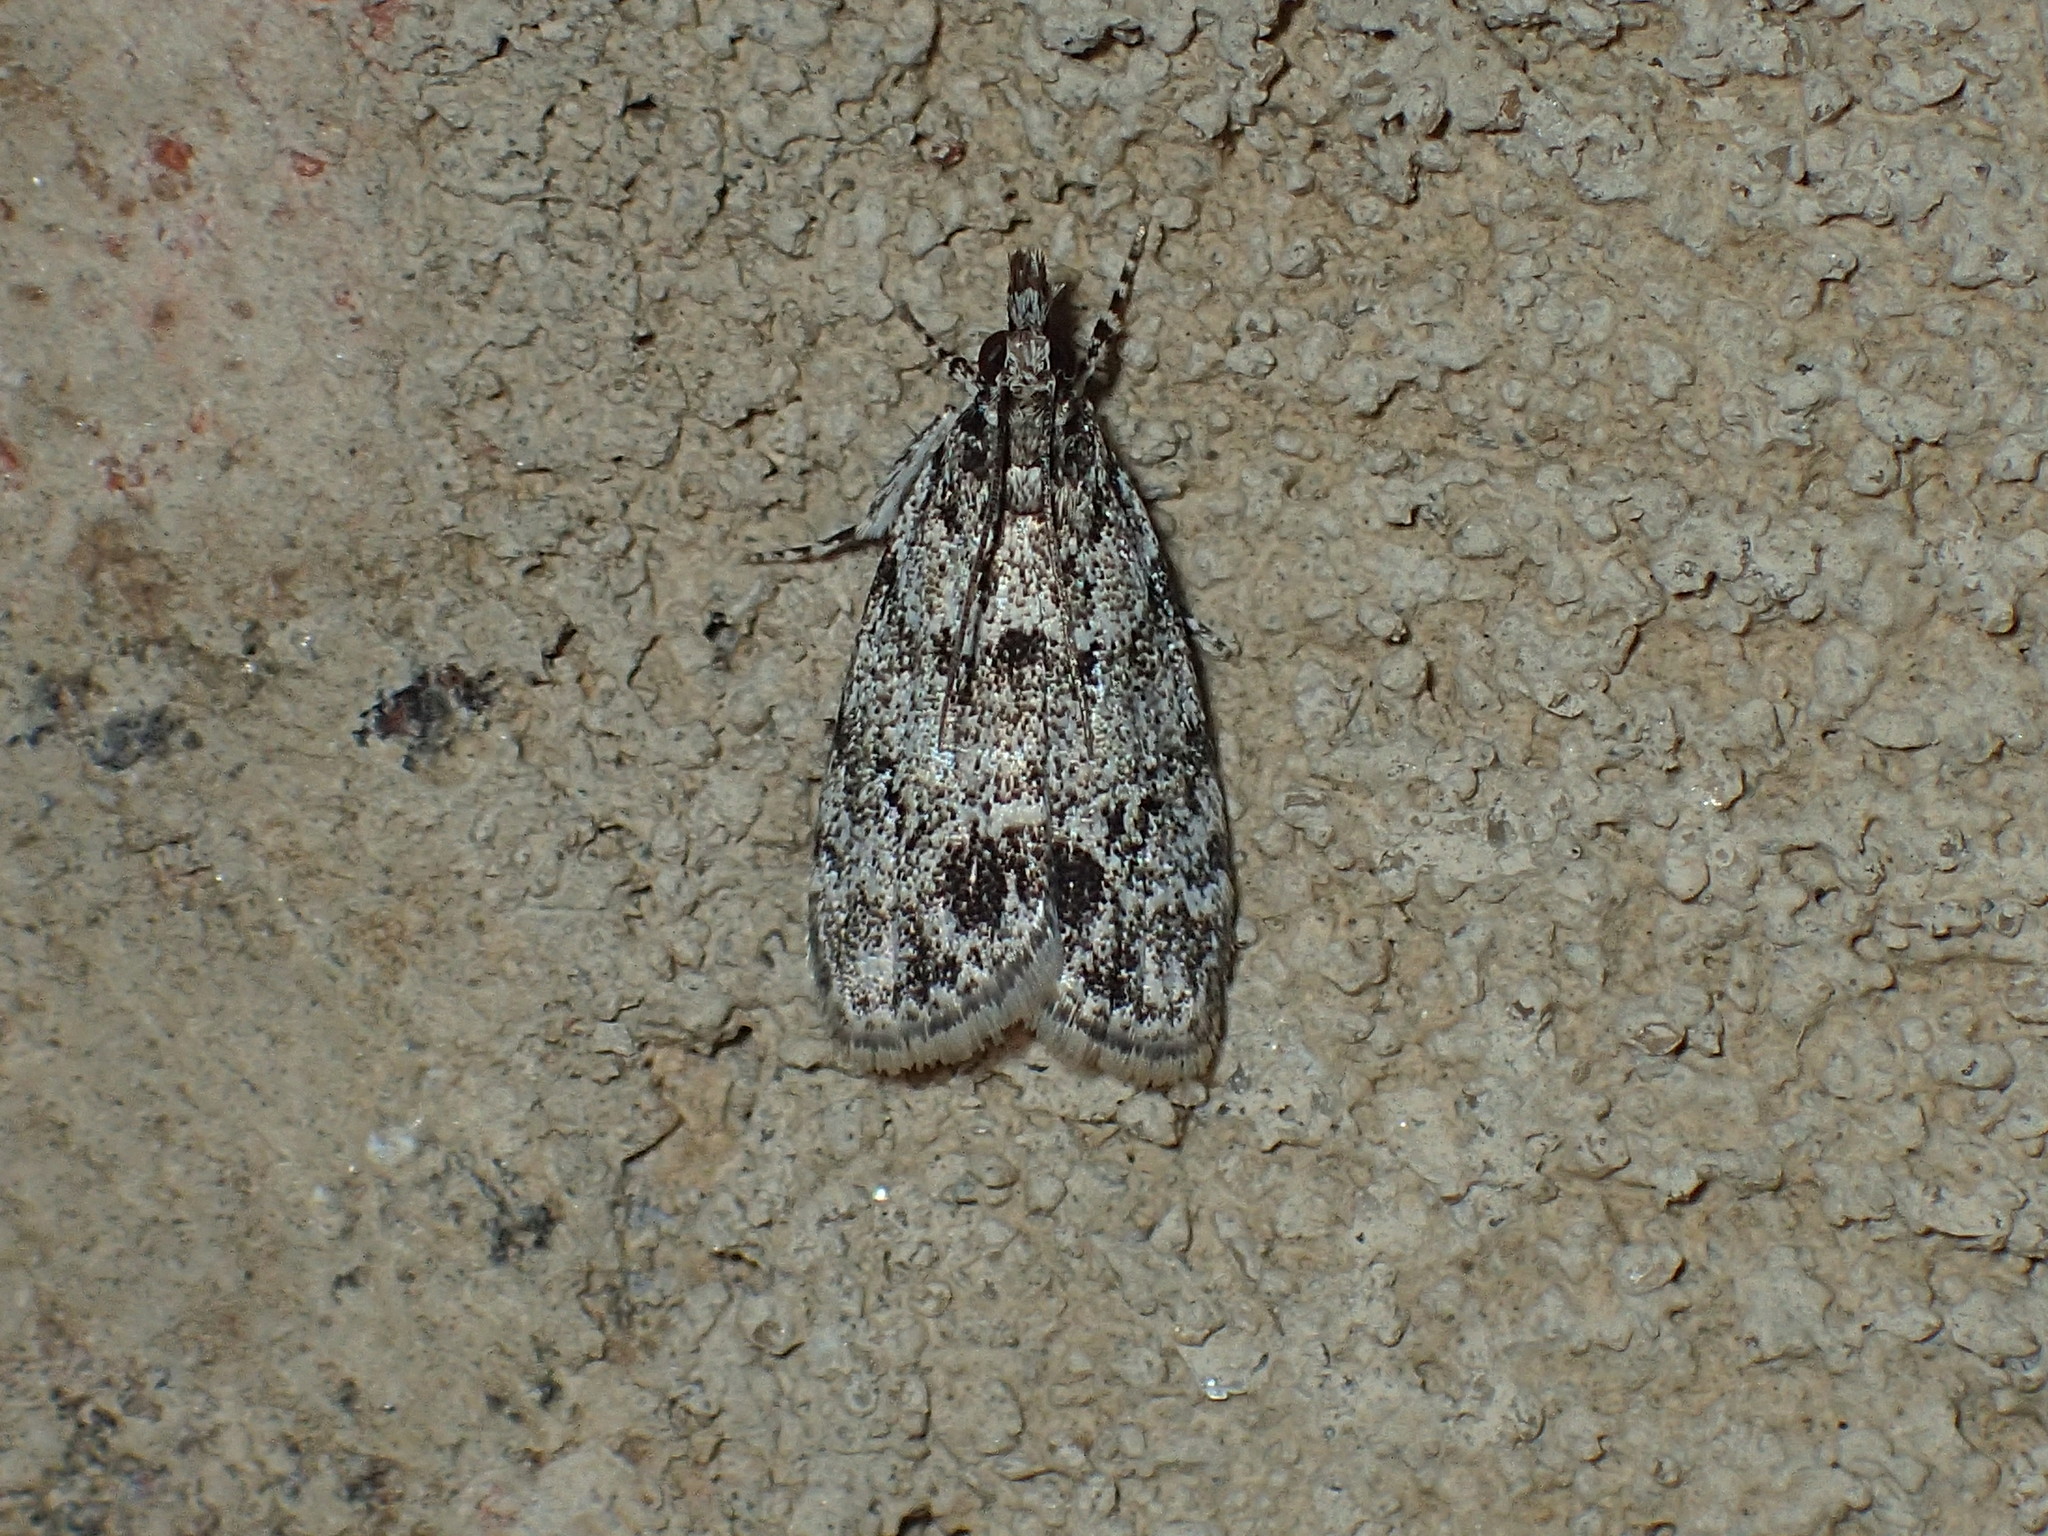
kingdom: Animalia
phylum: Arthropoda
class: Insecta
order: Lepidoptera
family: Crambidae
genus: Scoparia
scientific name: Scoparia basalis
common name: Many-spotted scoparia moth
